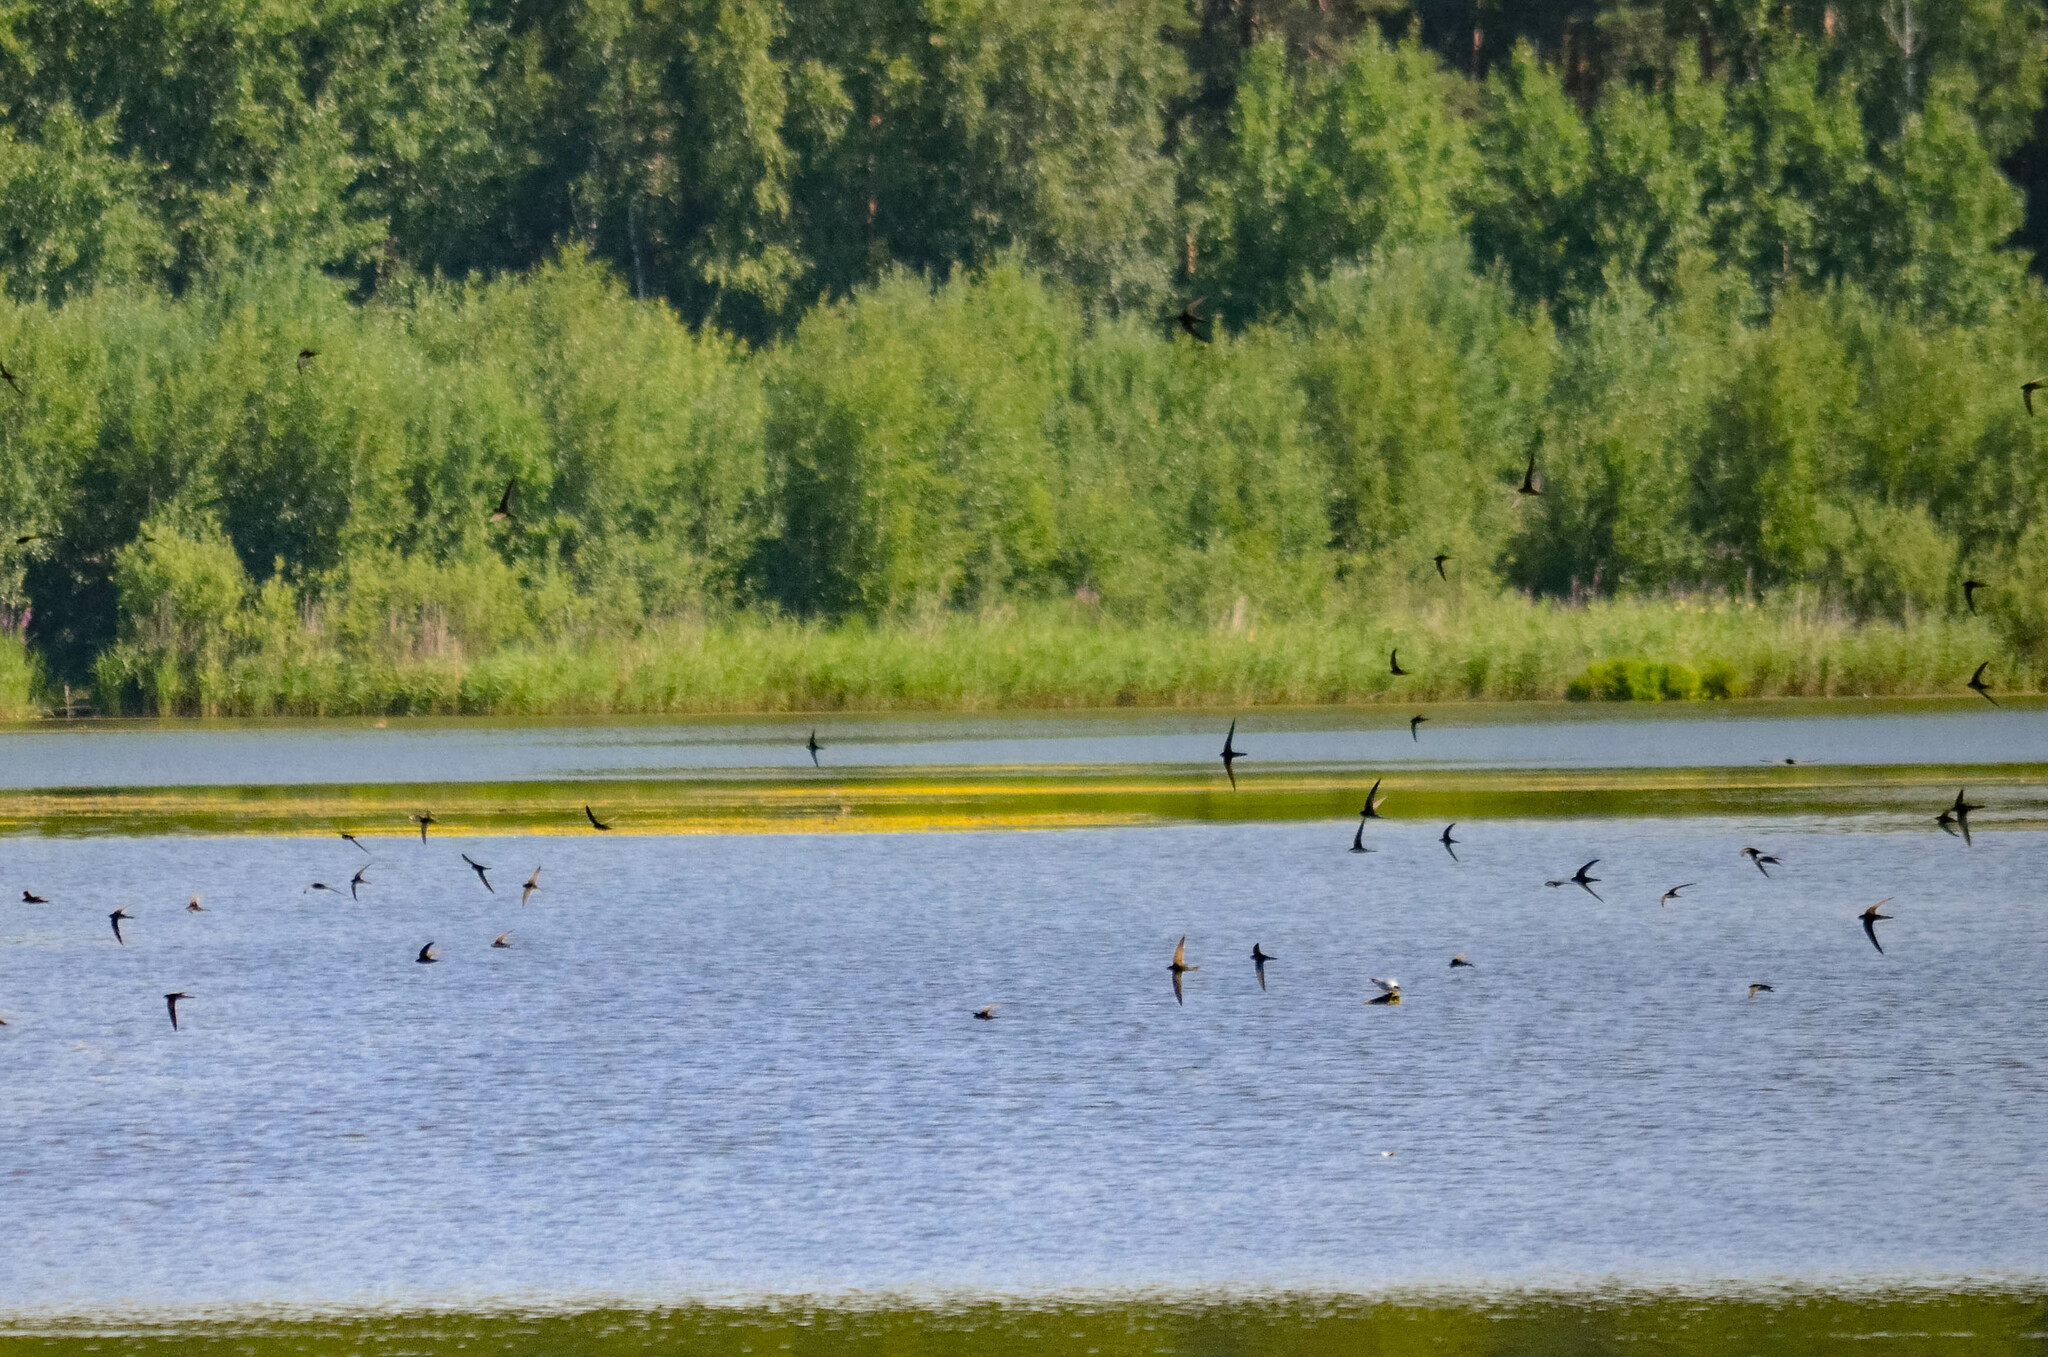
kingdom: Animalia
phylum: Chordata
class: Aves
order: Apodiformes
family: Apodidae
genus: Apus
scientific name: Apus apus
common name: Common swift
